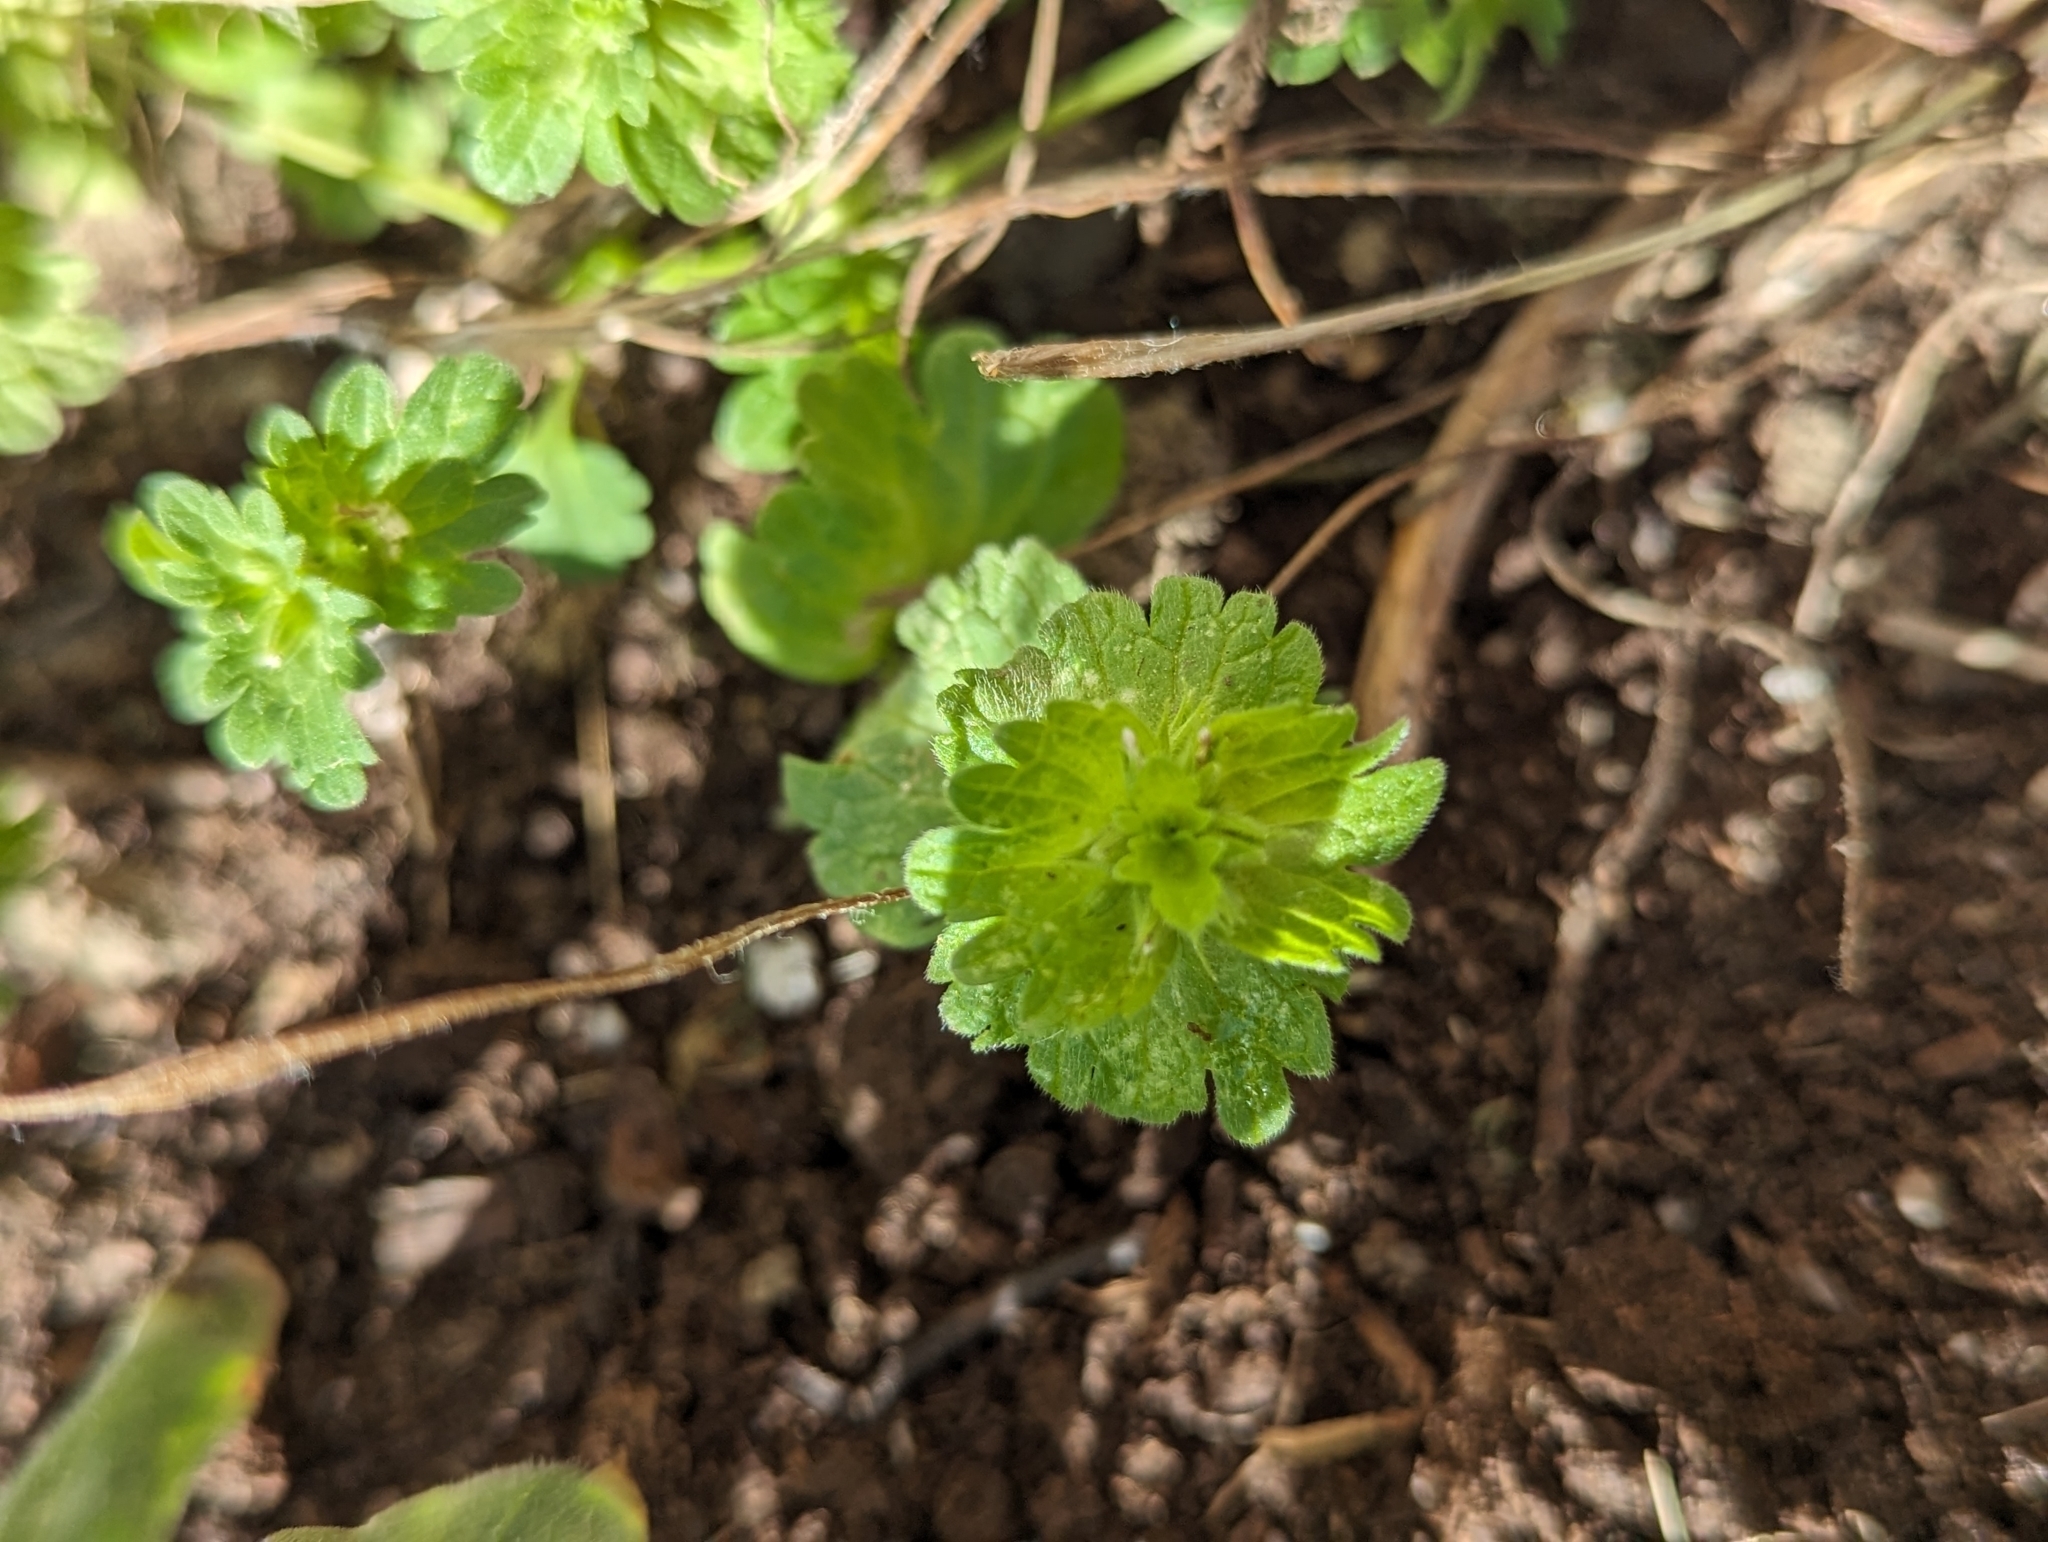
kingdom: Plantae
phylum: Tracheophyta
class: Magnoliopsida
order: Lamiales
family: Lamiaceae
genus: Lamium
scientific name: Lamium amplexicaule
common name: Henbit dead-nettle
